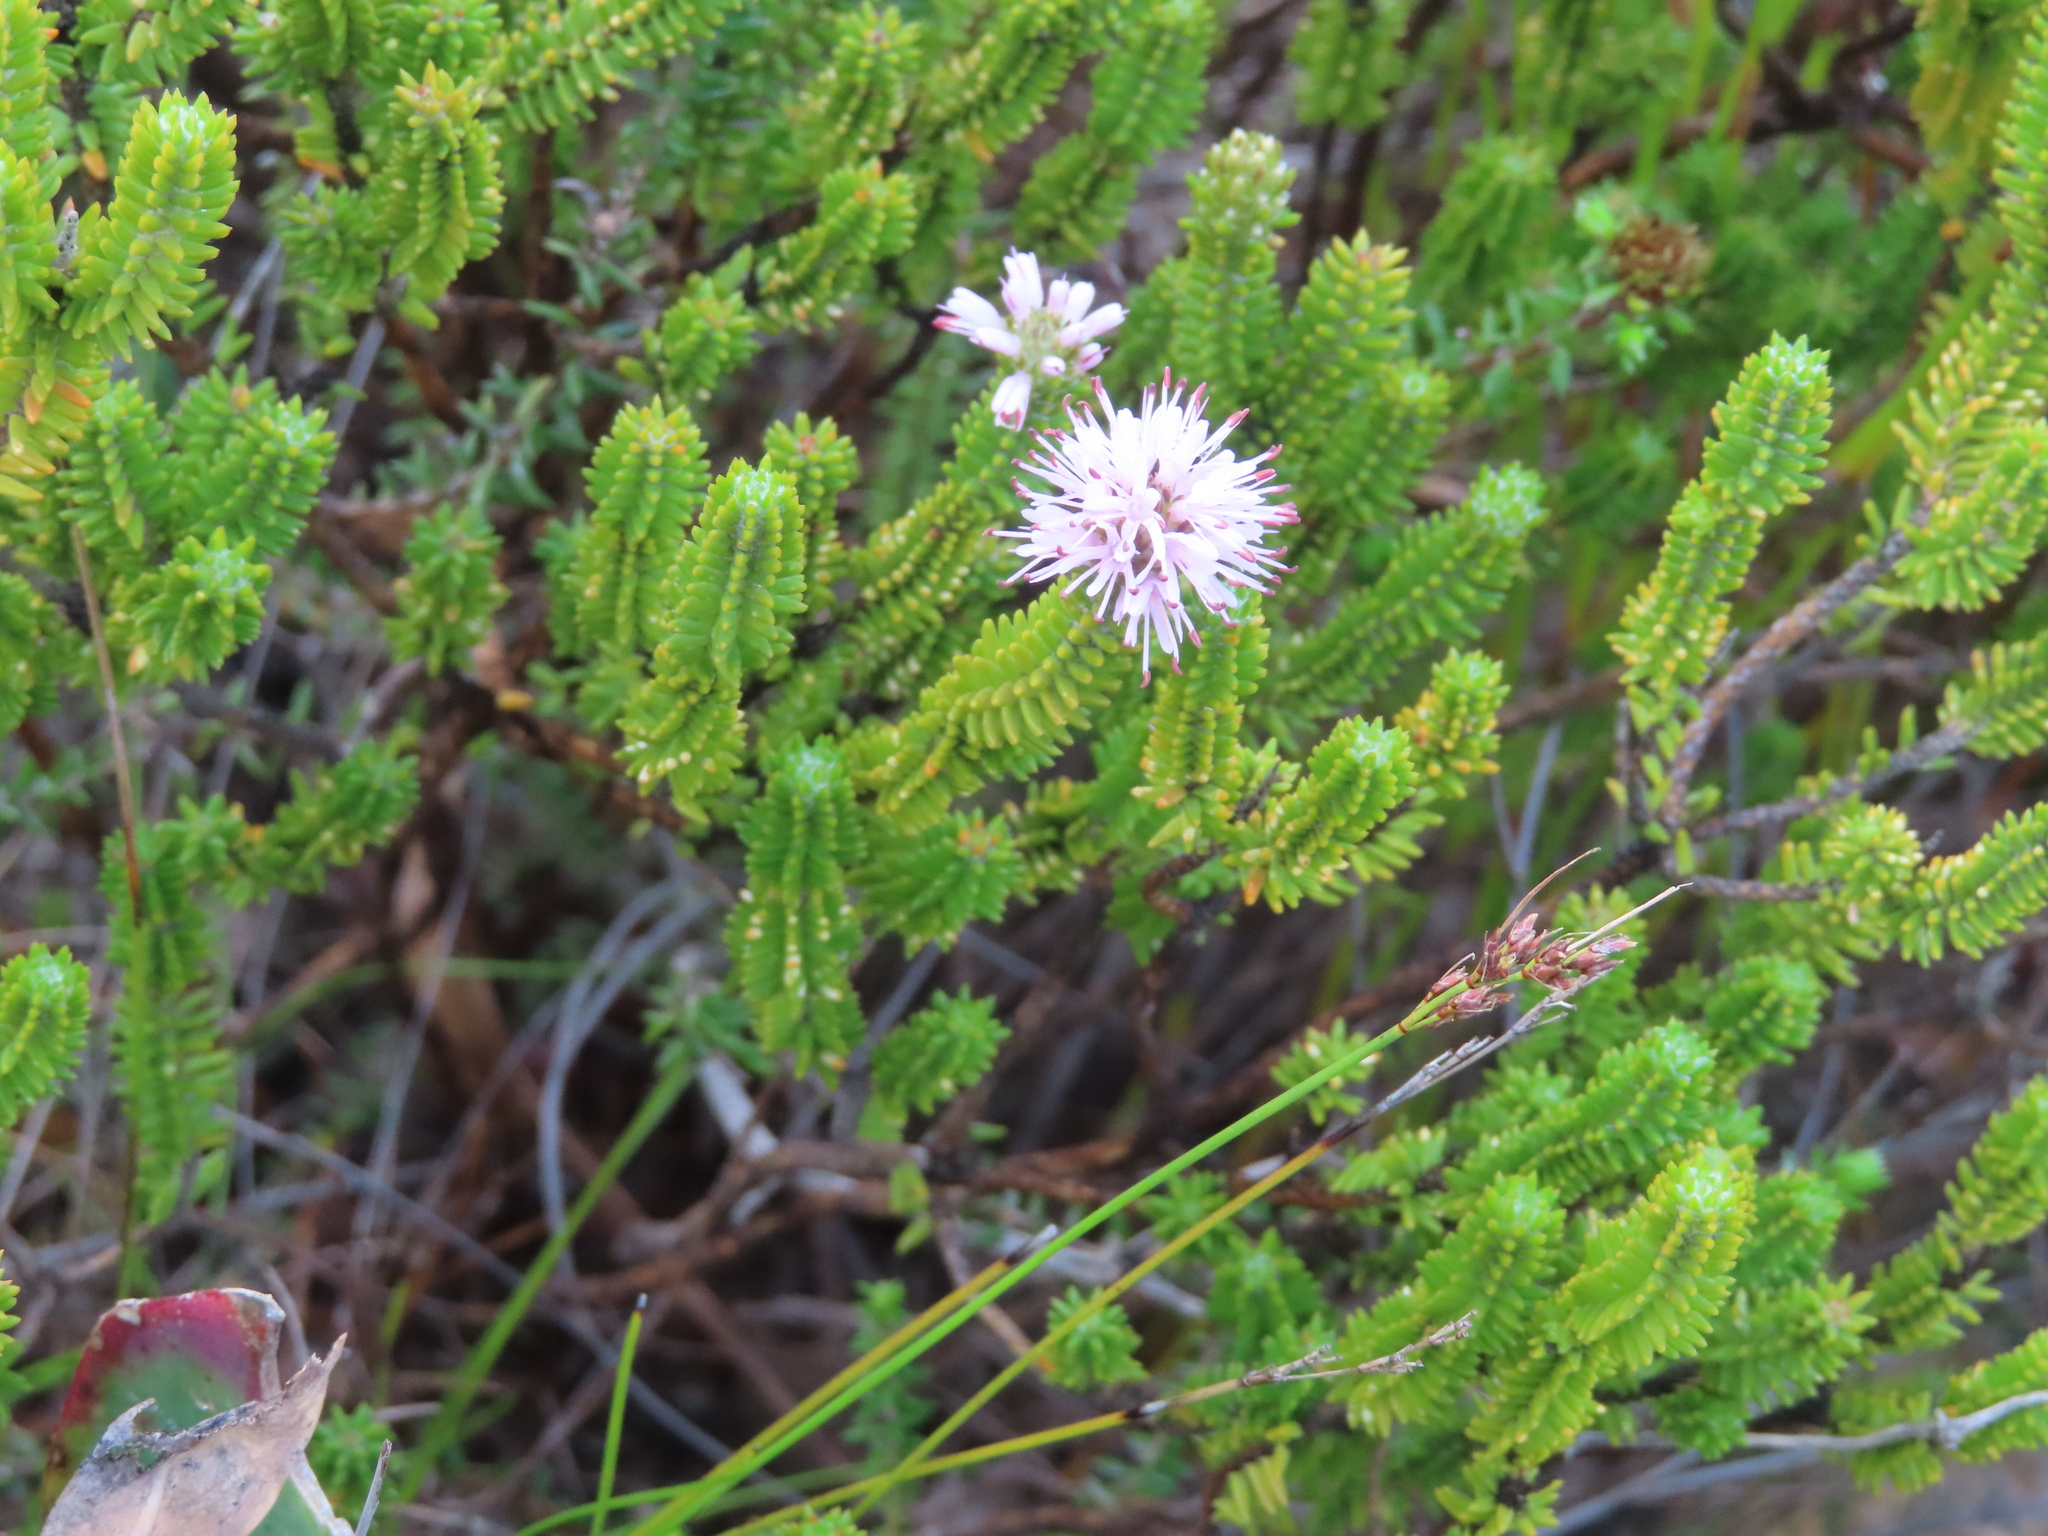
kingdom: Plantae
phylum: Tracheophyta
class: Magnoliopsida
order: Lamiales
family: Stilbaceae
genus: Stilbe
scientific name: Stilbe ericoides
